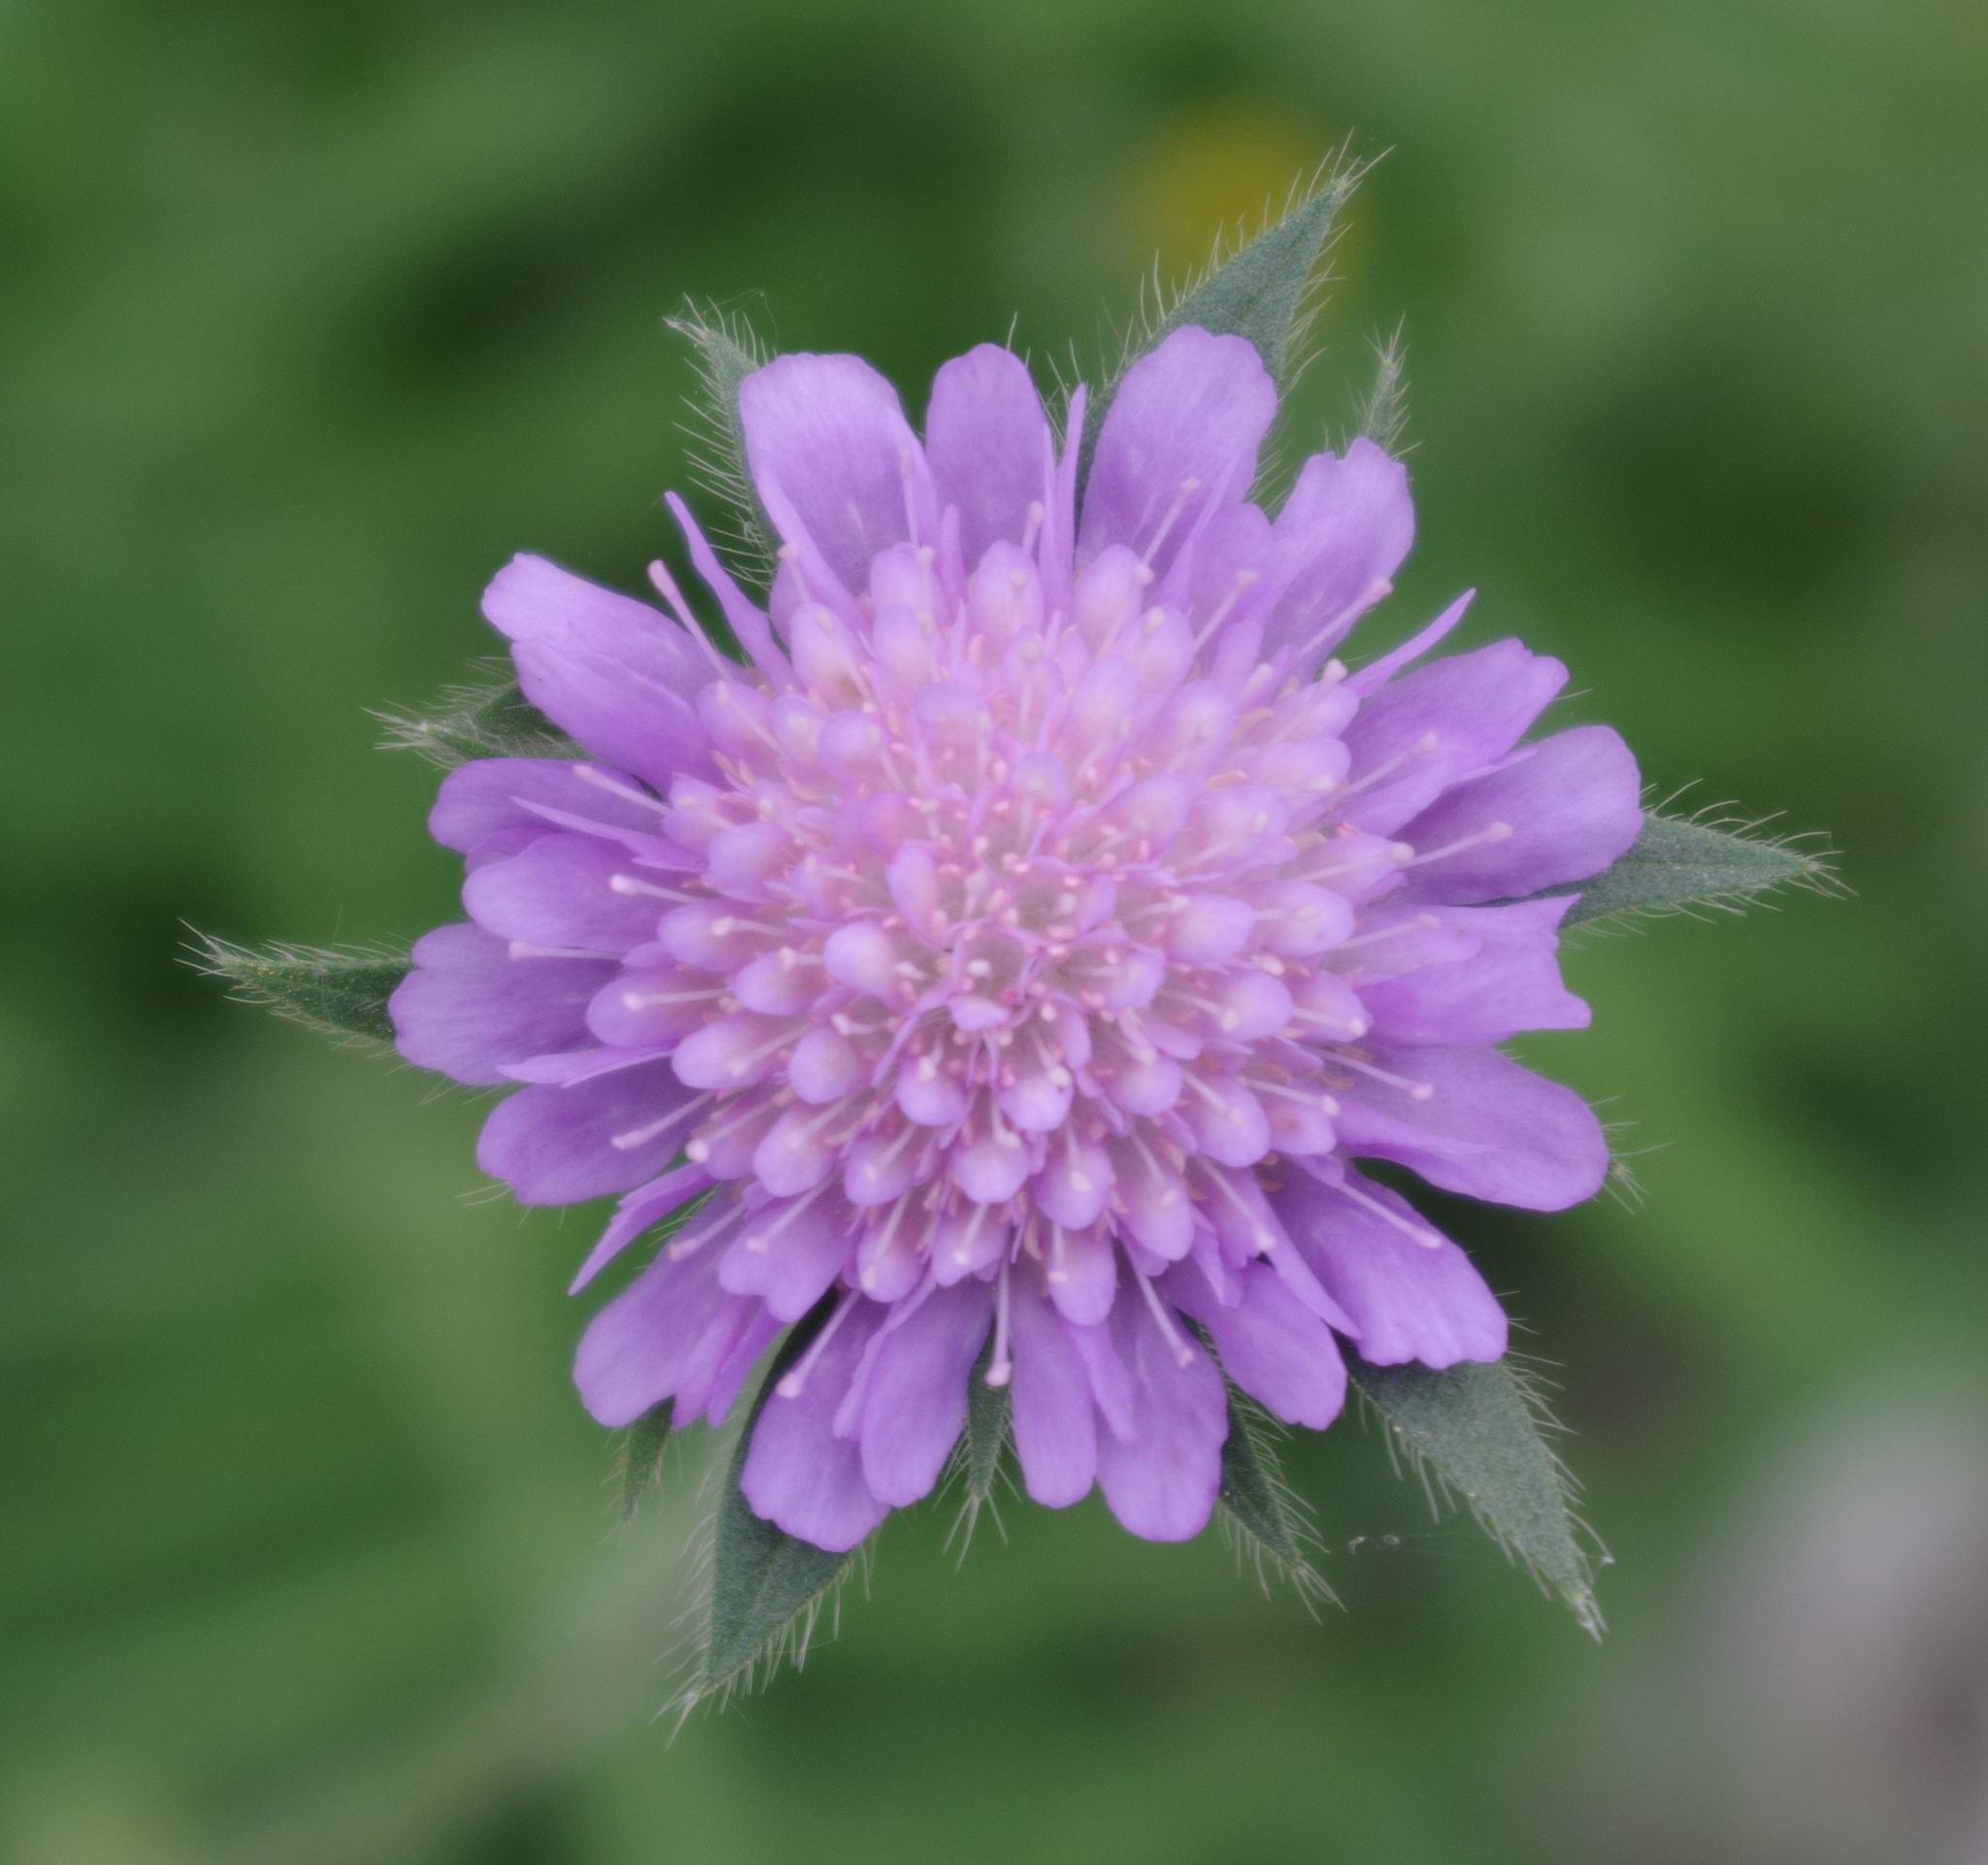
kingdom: Plantae
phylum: Tracheophyta
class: Magnoliopsida
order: Dipsacales
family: Caprifoliaceae
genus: Knautia
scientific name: Knautia arvensis
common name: Field scabiosa
